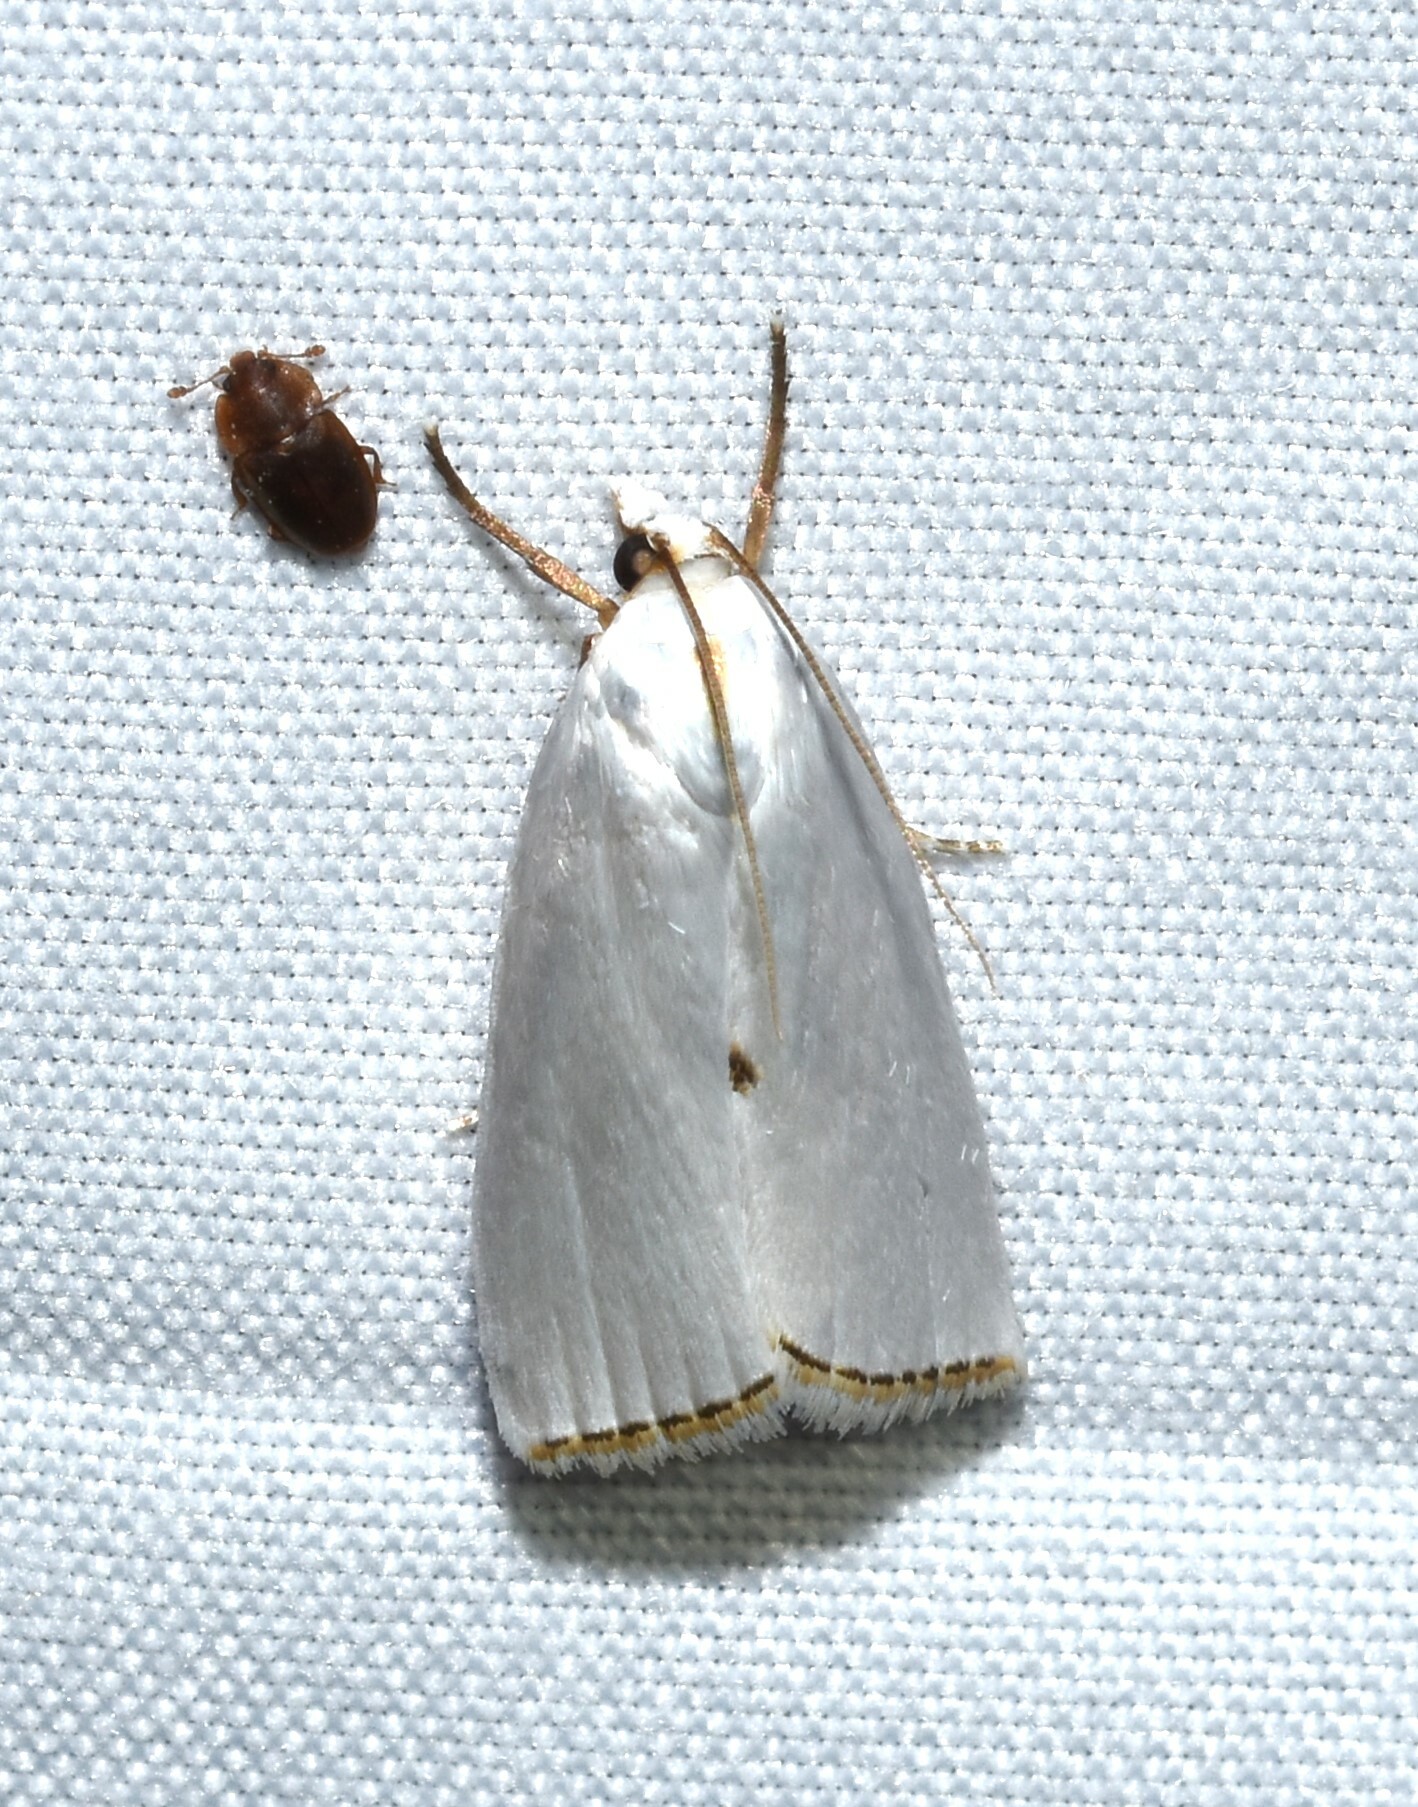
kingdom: Animalia
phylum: Arthropoda
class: Insecta
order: Lepidoptera
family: Crambidae
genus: Argyria
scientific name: Argyria nivalis
